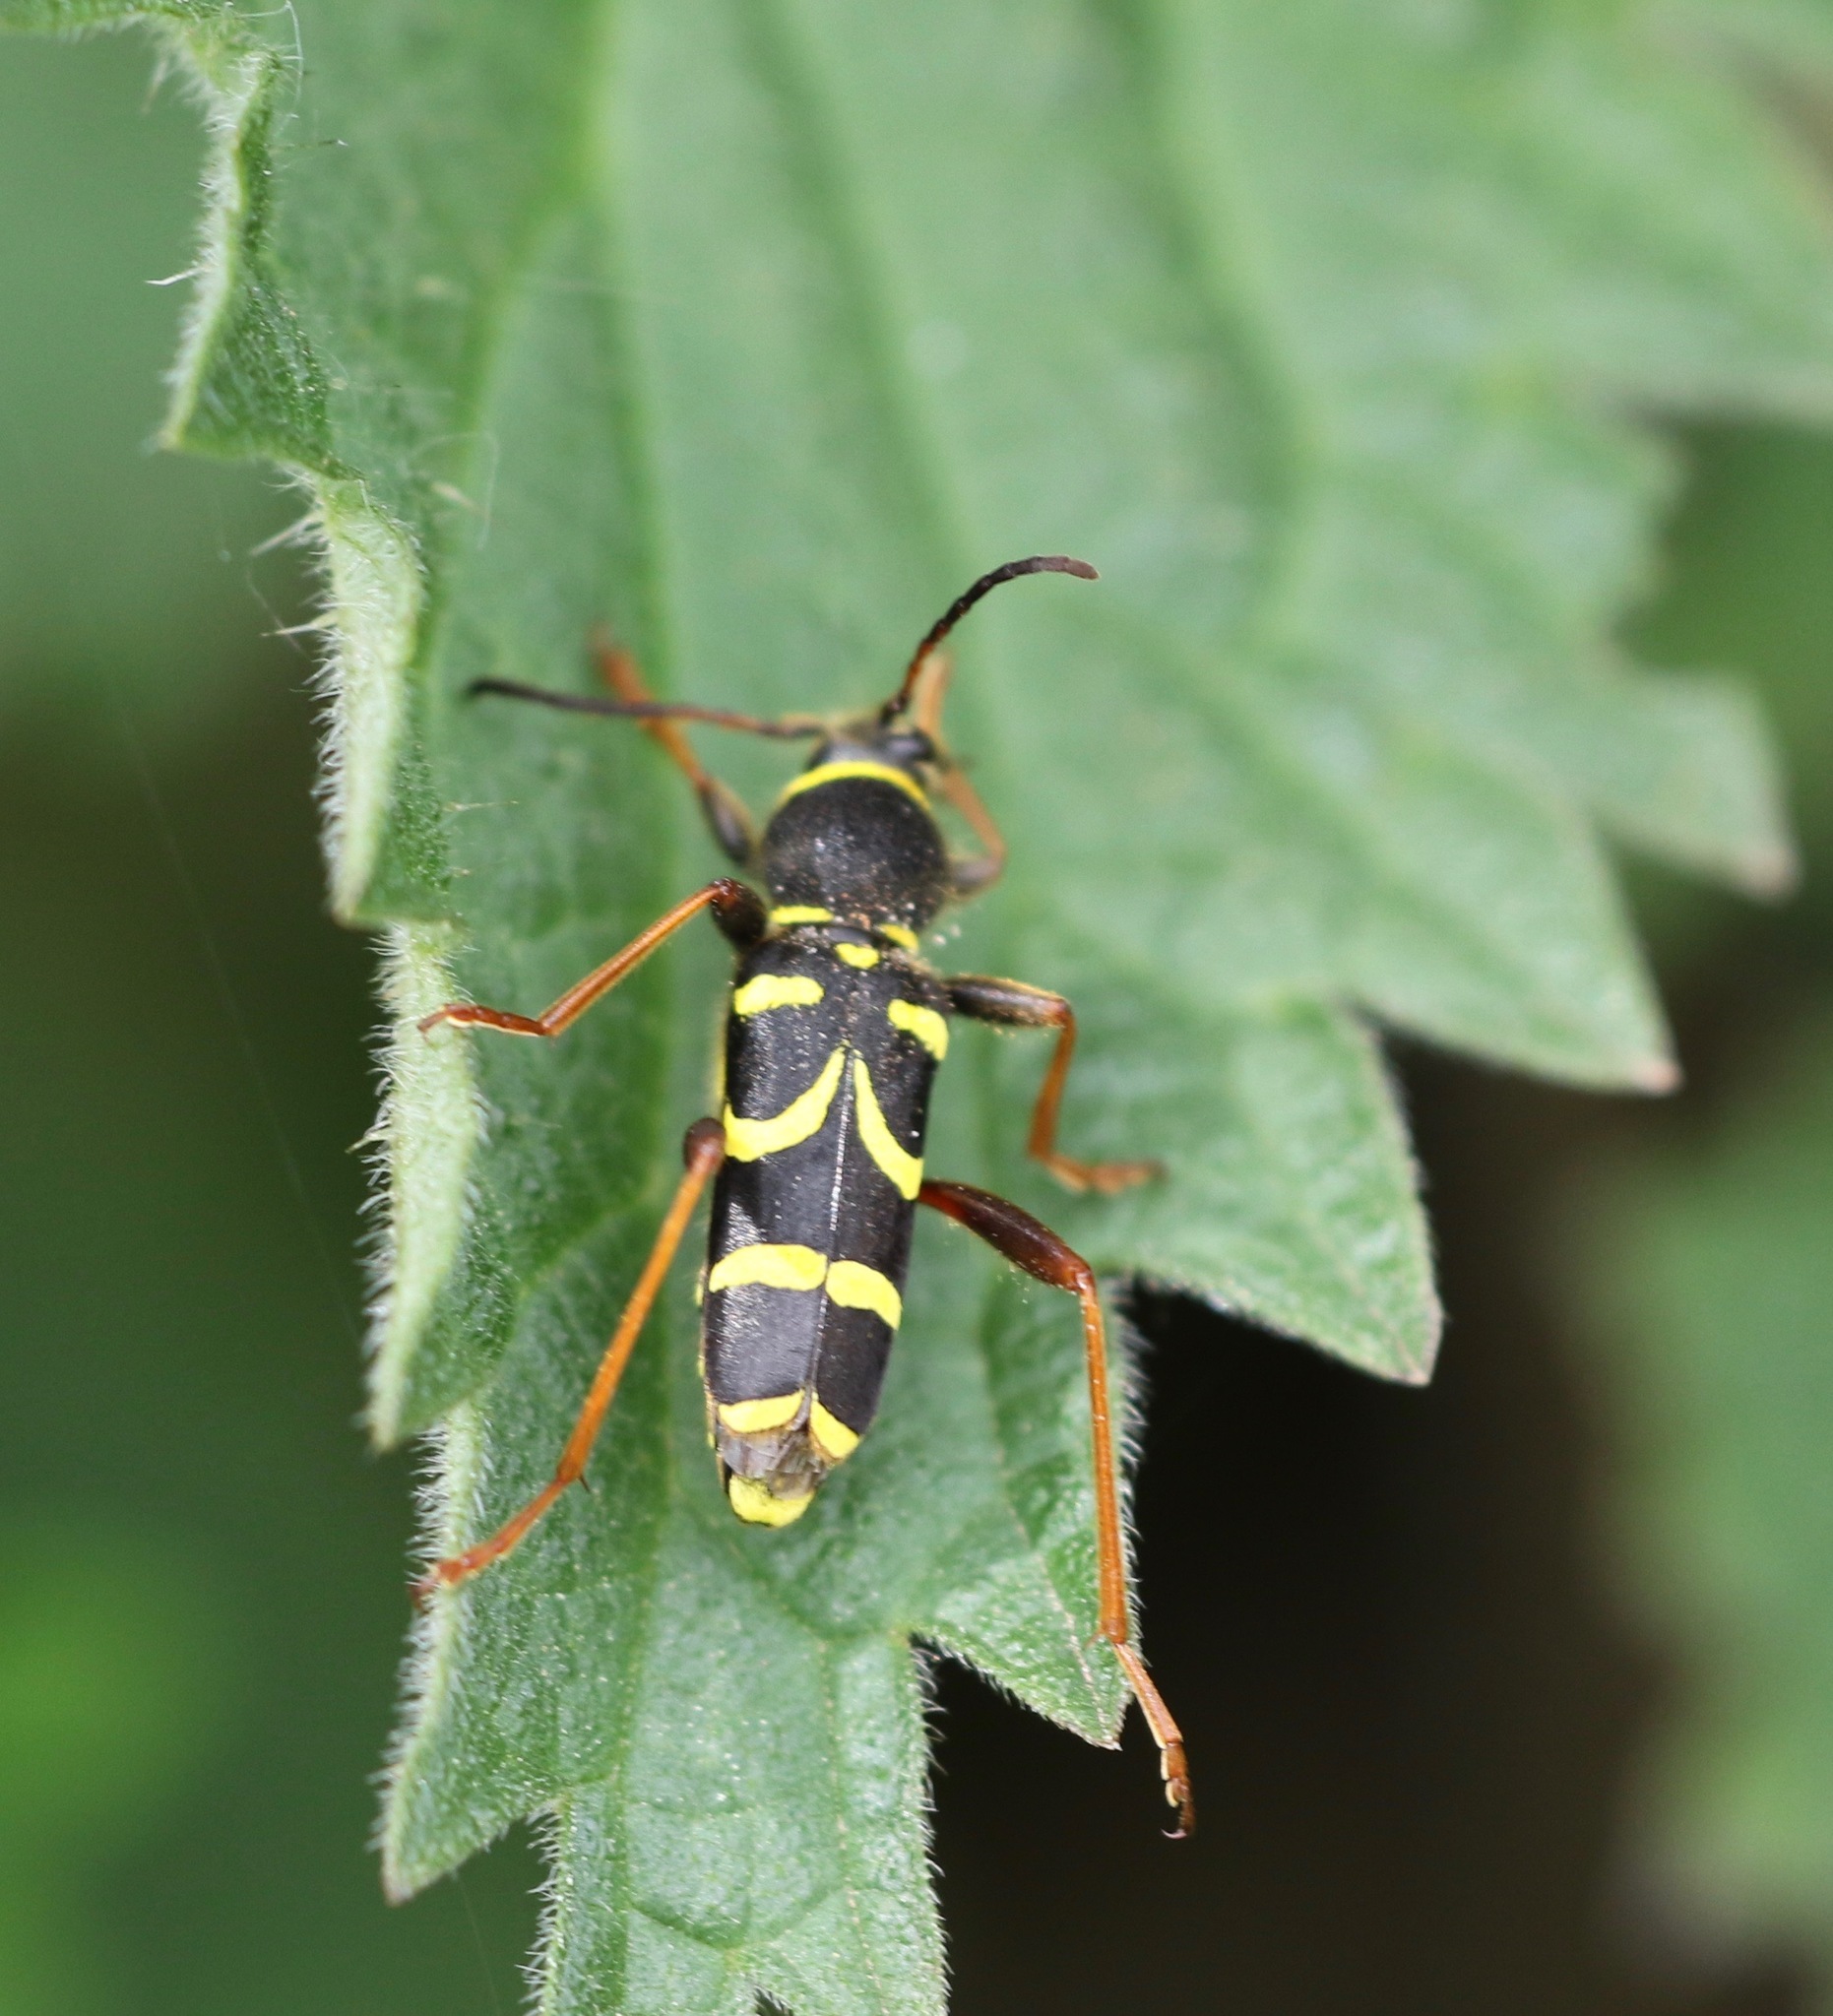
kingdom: Animalia
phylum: Arthropoda
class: Insecta
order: Coleoptera
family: Cerambycidae
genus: Clytus
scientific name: Clytus arietis
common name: Wasp beetle
